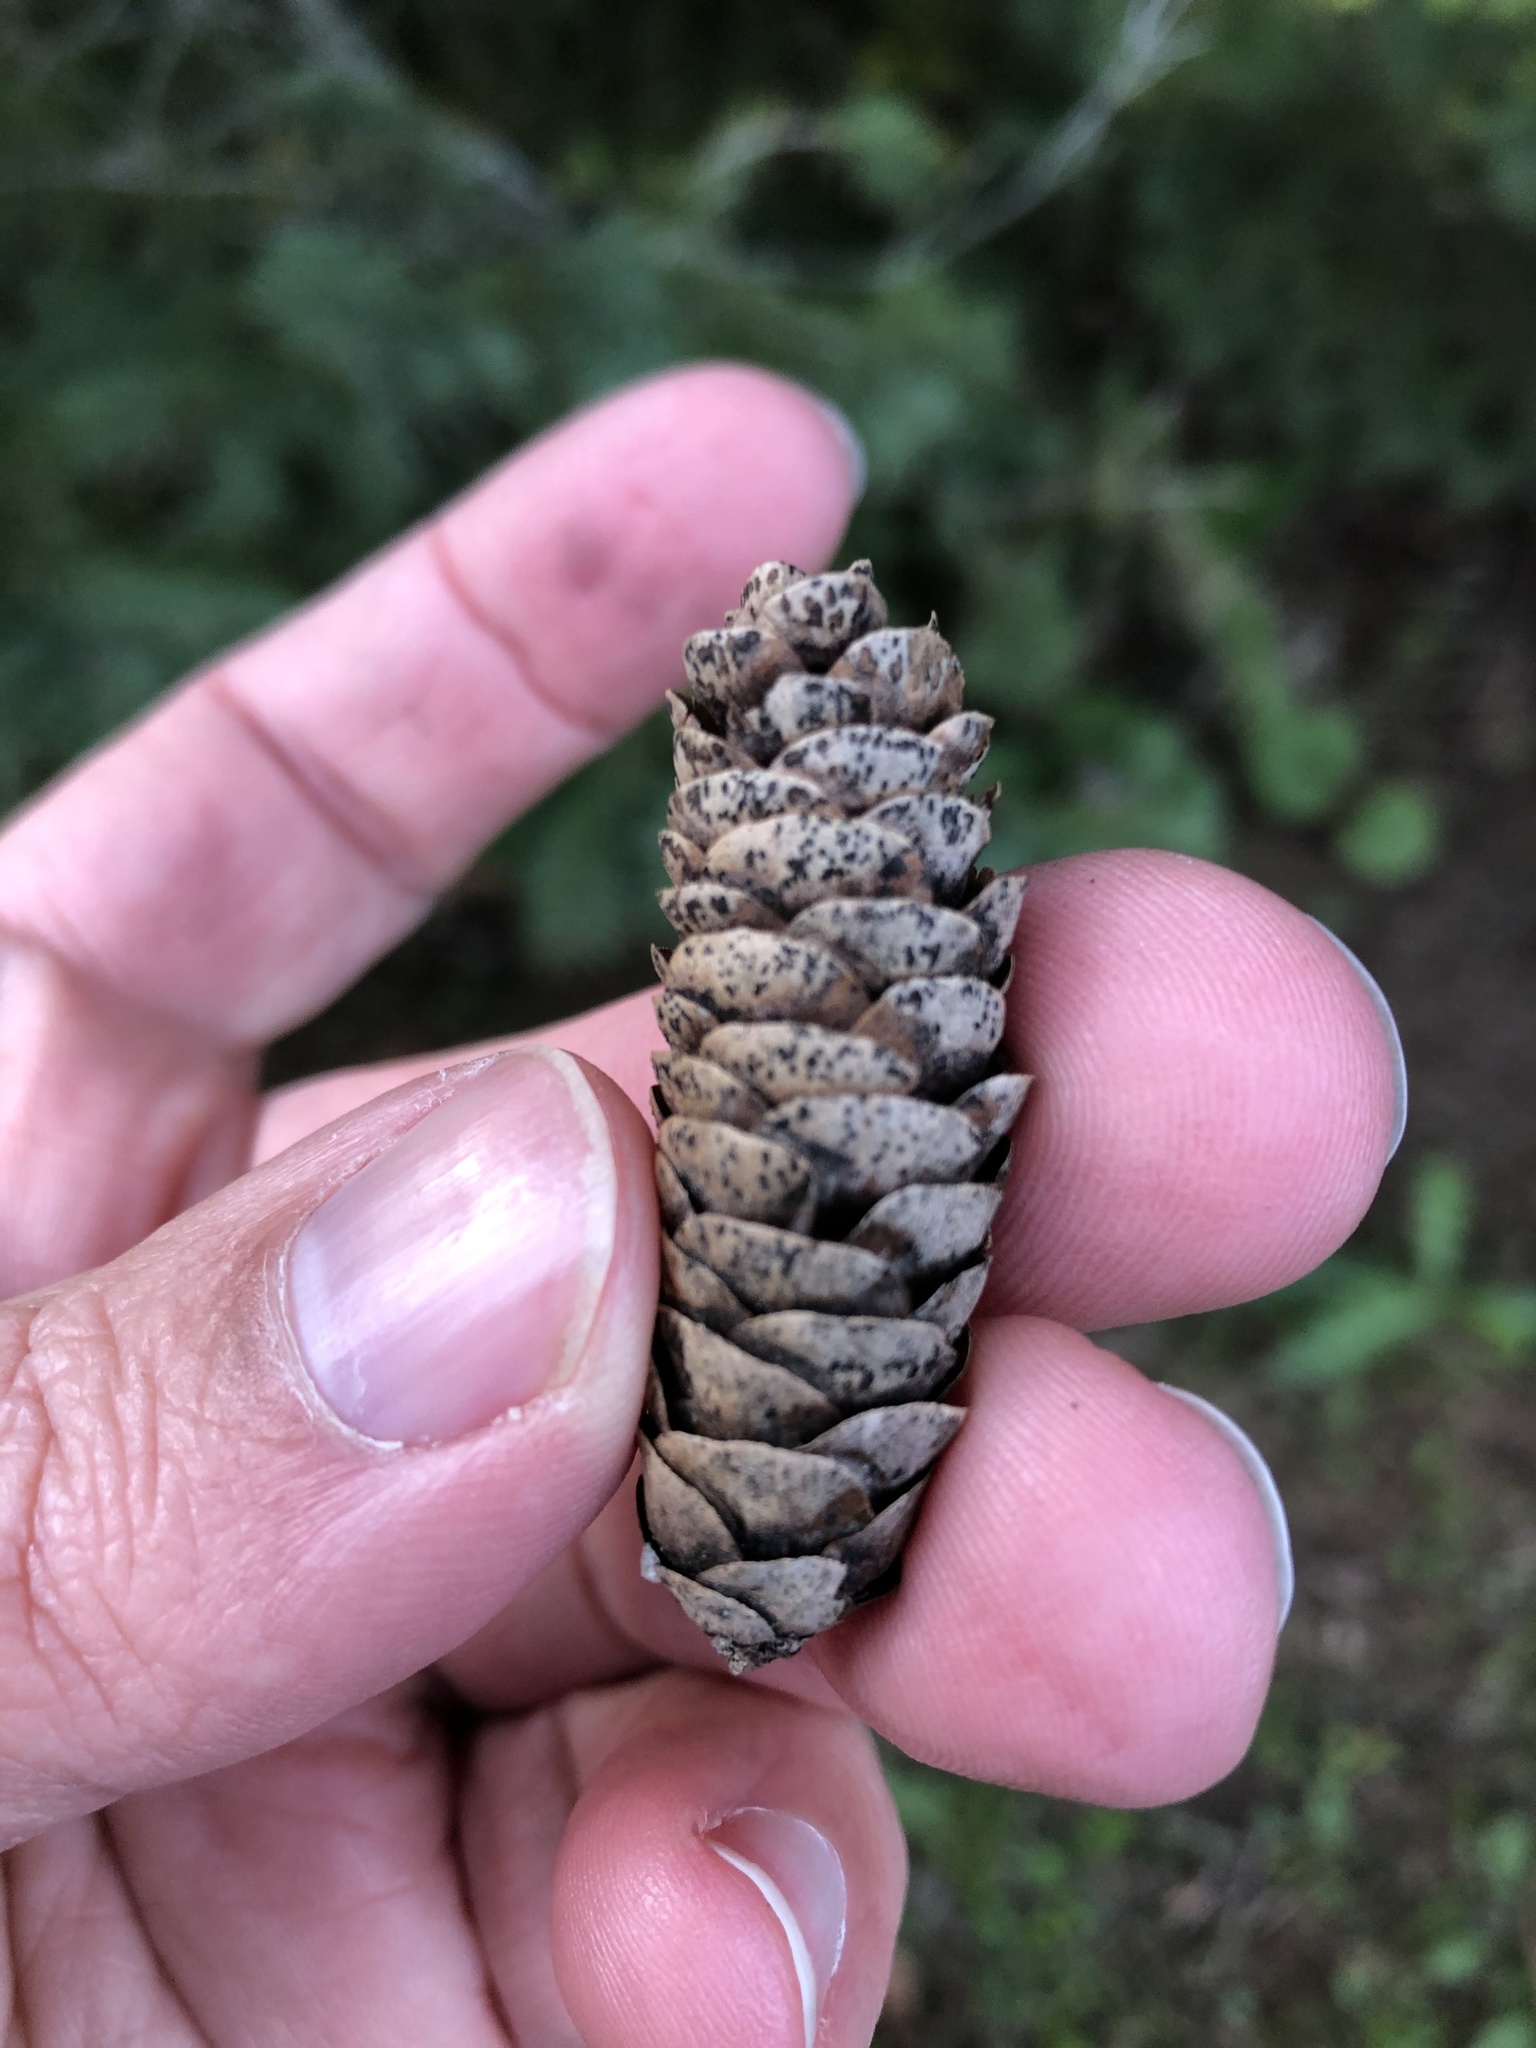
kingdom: Plantae
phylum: Tracheophyta
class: Pinopsida
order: Pinales
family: Pinaceae
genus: Picea
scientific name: Picea glauca
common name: White spruce
